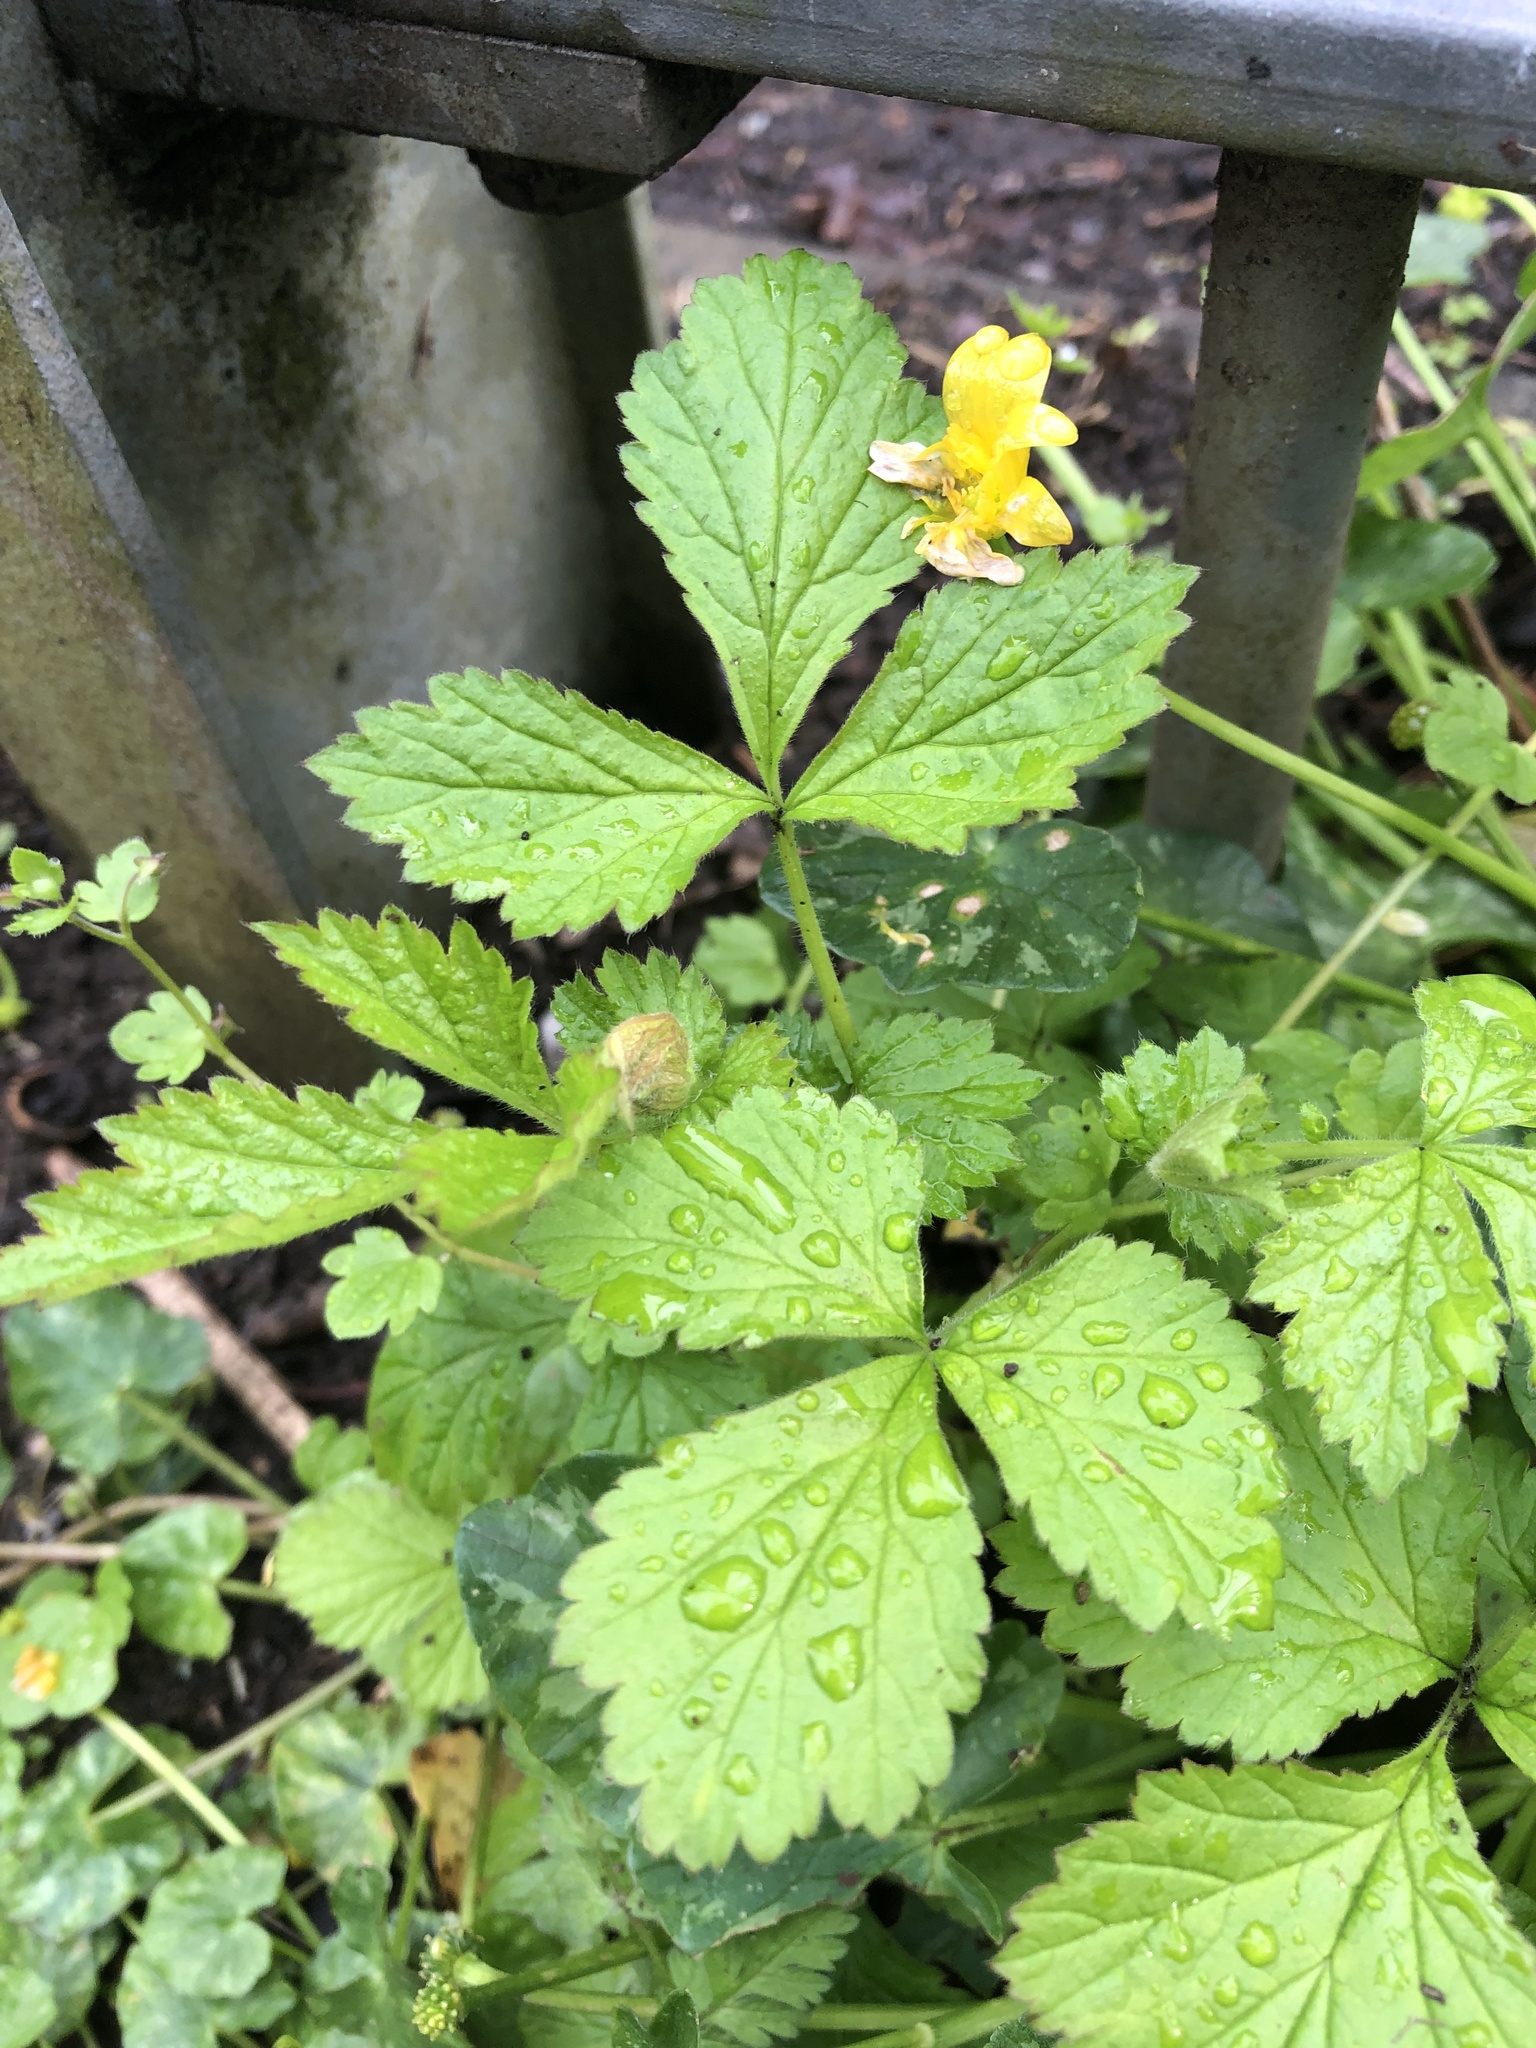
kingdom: Plantae
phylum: Tracheophyta
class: Magnoliopsida
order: Rosales
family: Rosaceae
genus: Geum
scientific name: Geum urbanum
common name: Wood avens
